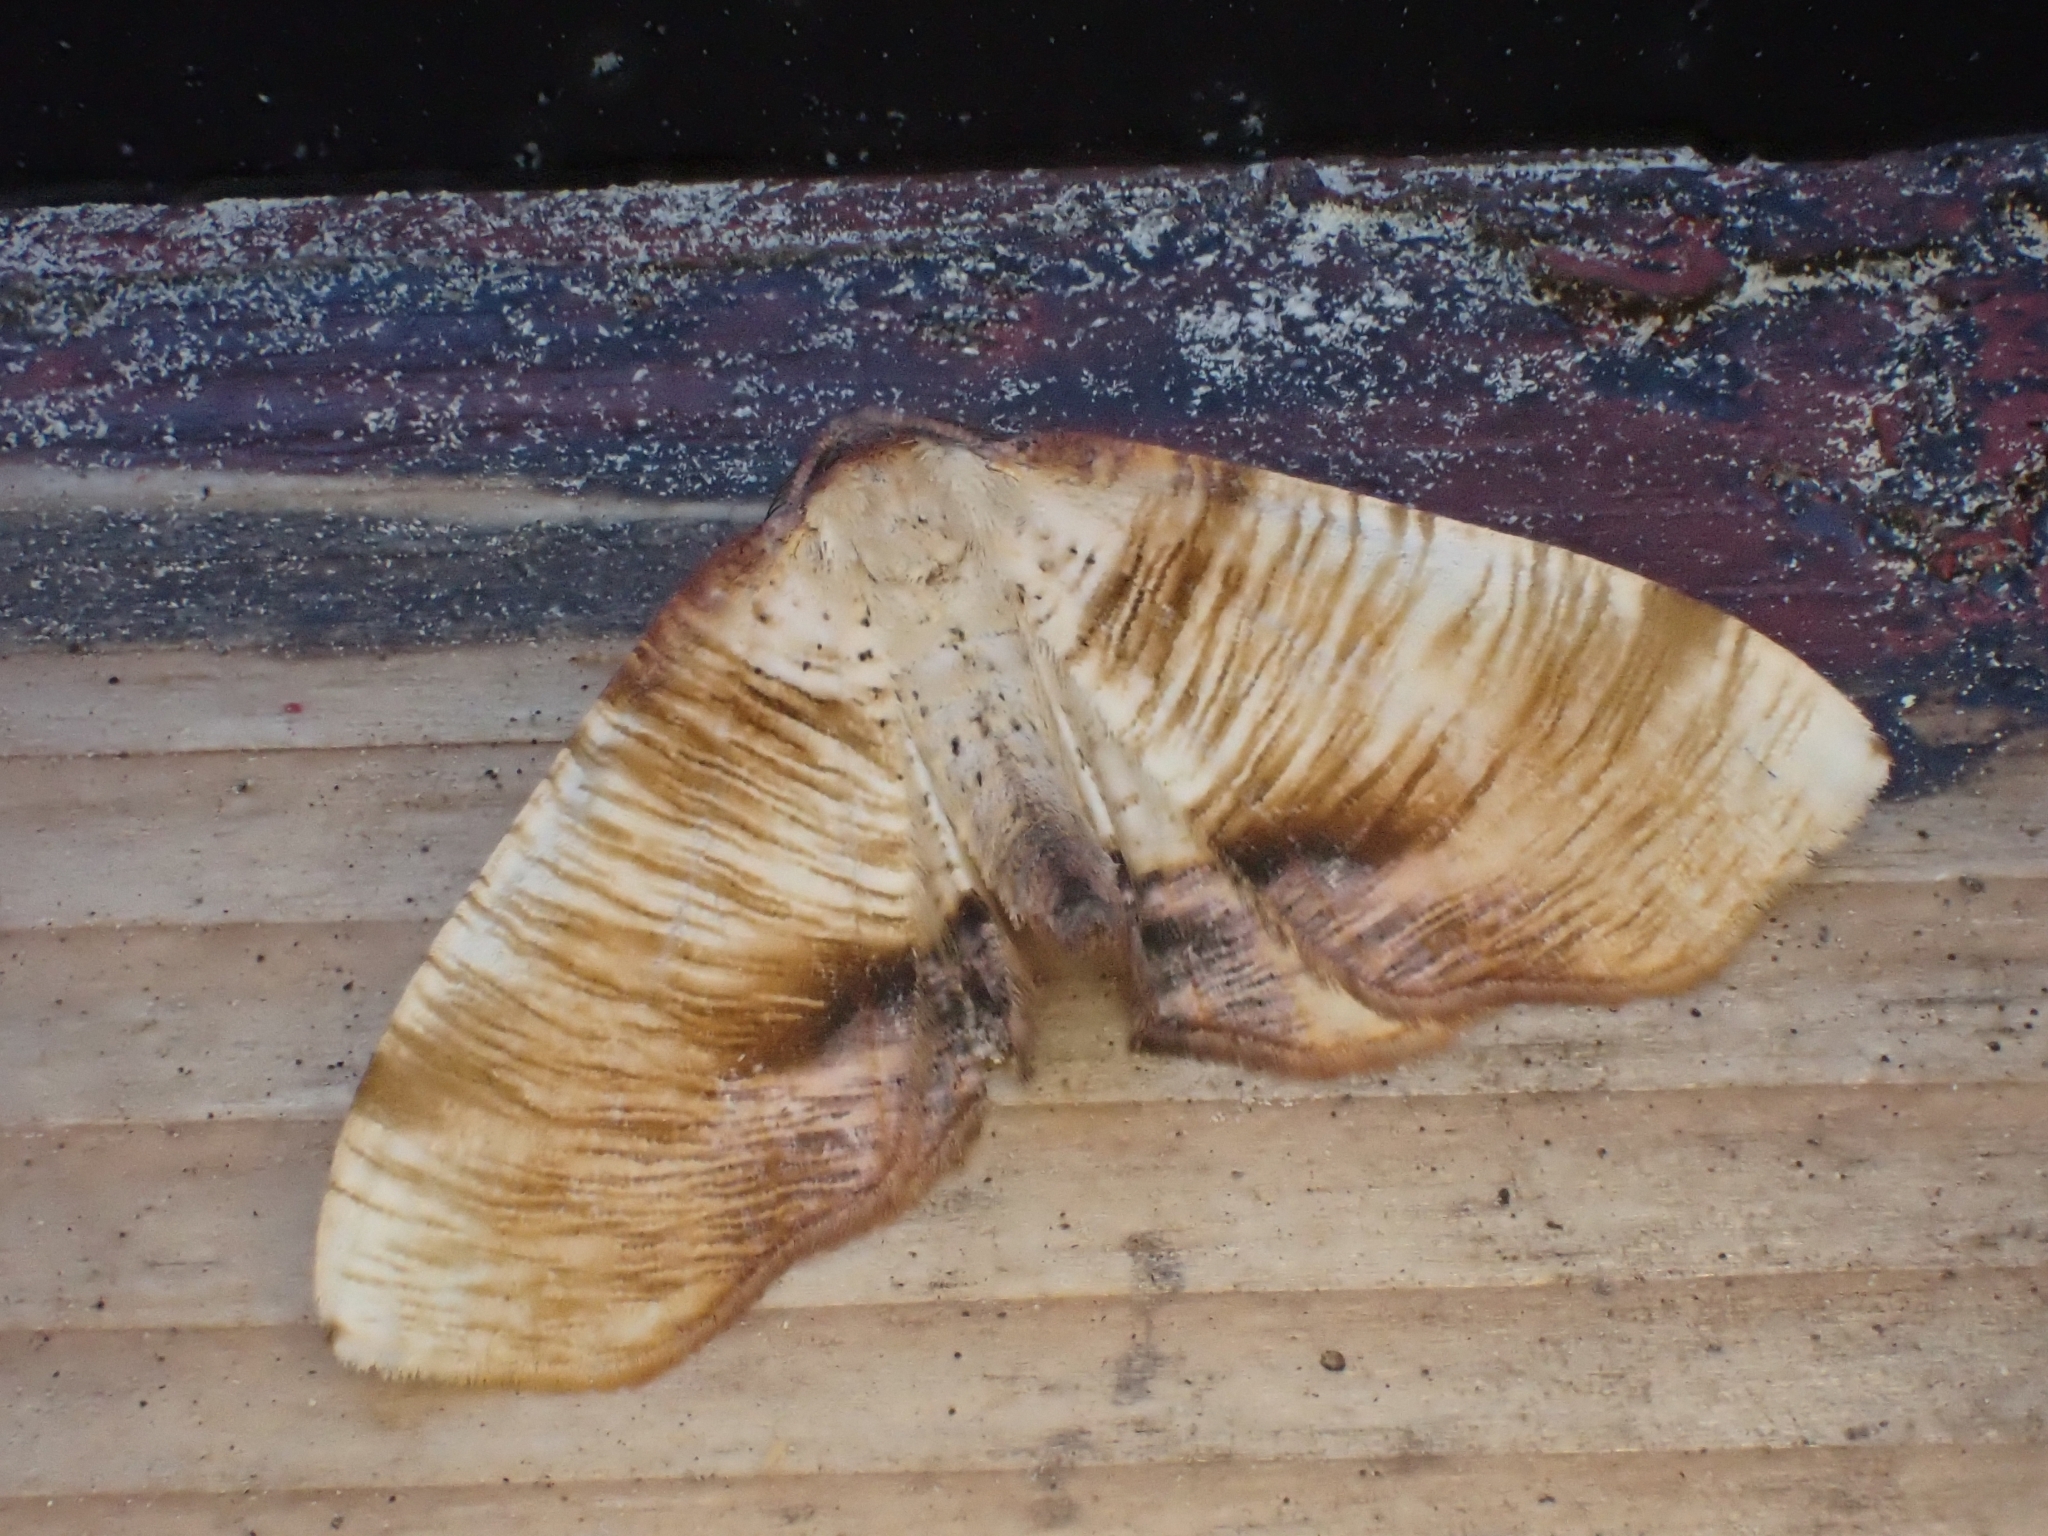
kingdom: Animalia
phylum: Arthropoda
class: Insecta
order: Lepidoptera
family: Geometridae
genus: Plagodis
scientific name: Plagodis dolabraria
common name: Scorched wing
